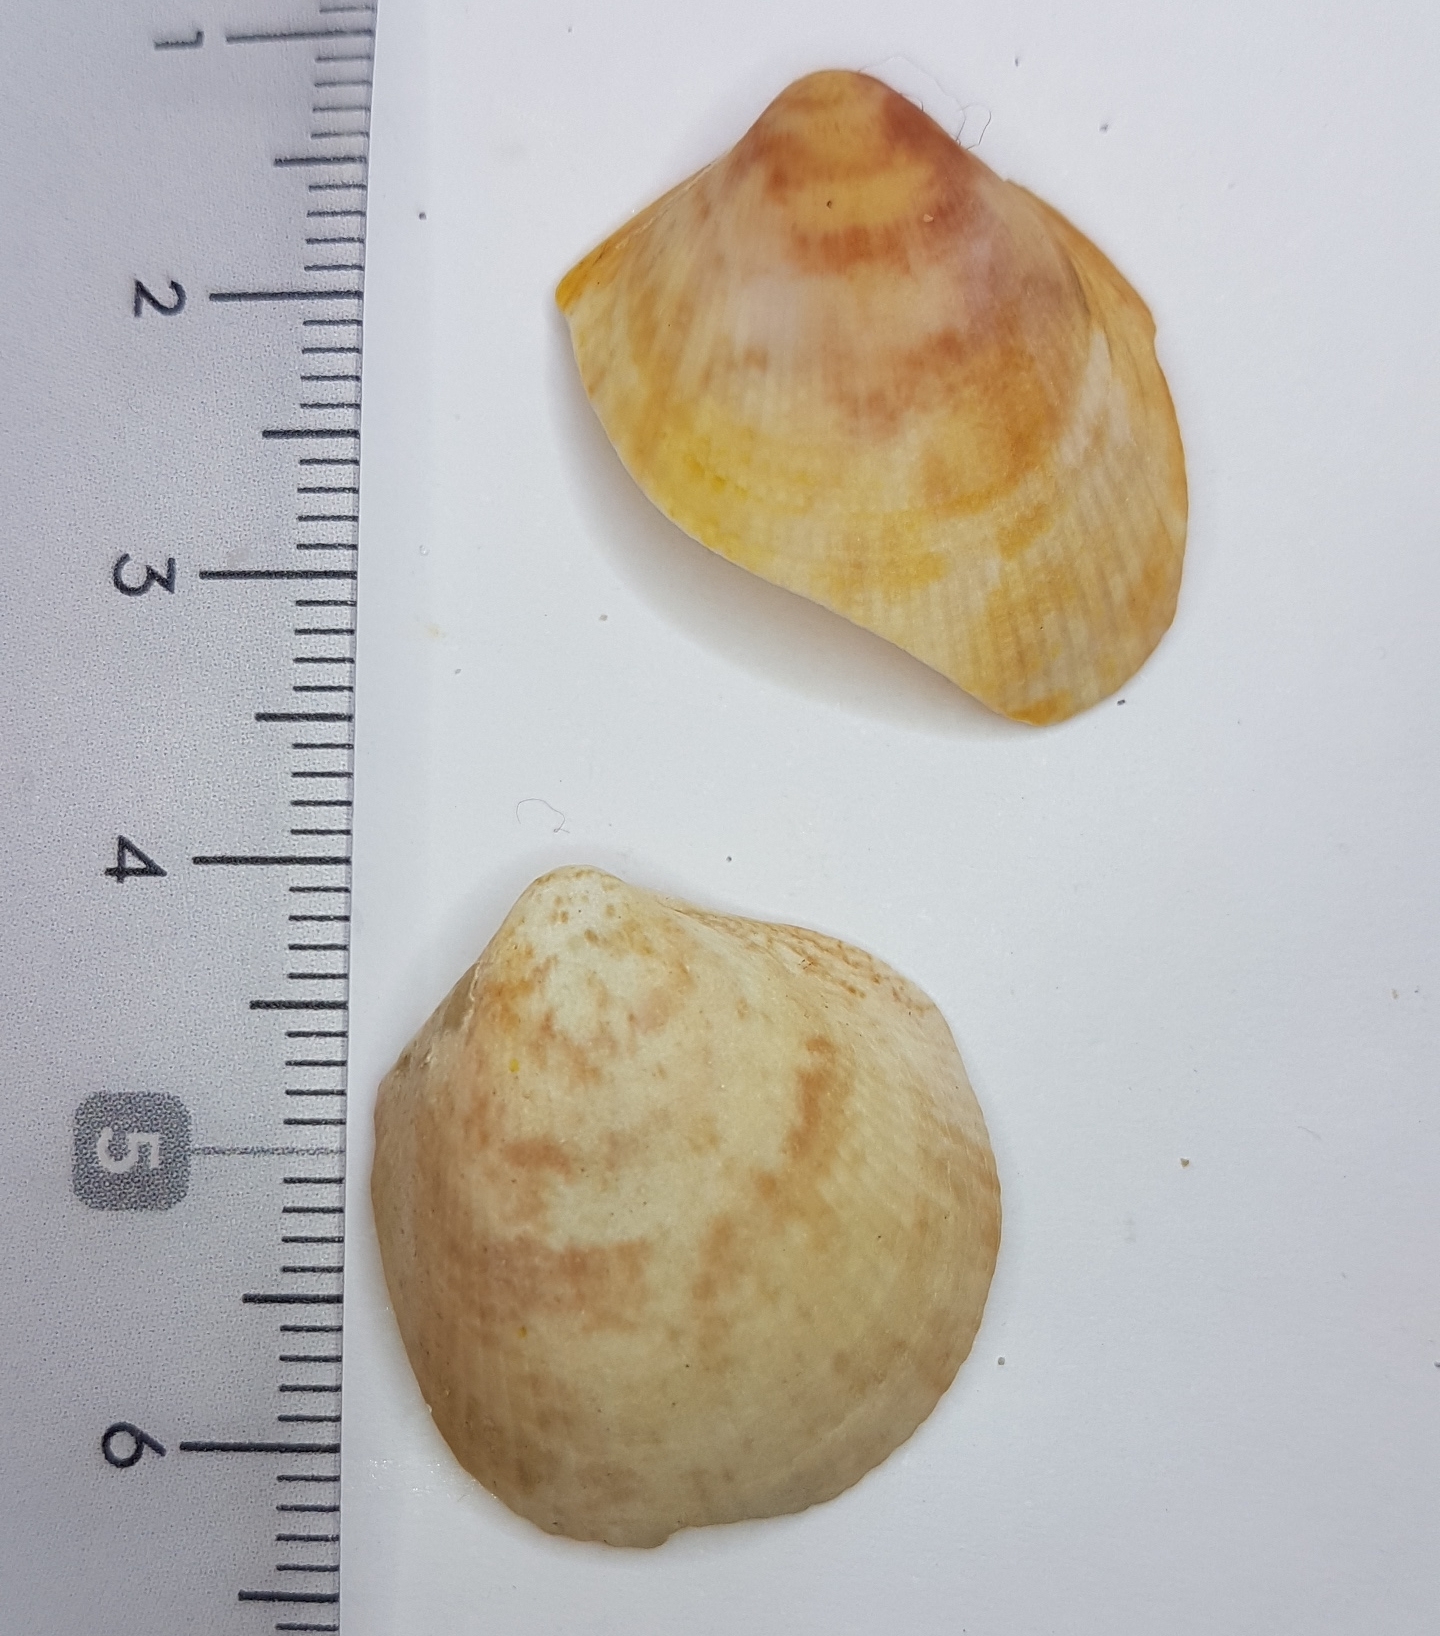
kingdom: Animalia
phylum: Mollusca
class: Bivalvia
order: Cardiida
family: Cardiidae
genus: Laevicardium
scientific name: Laevicardium crassum
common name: Norway cockle
